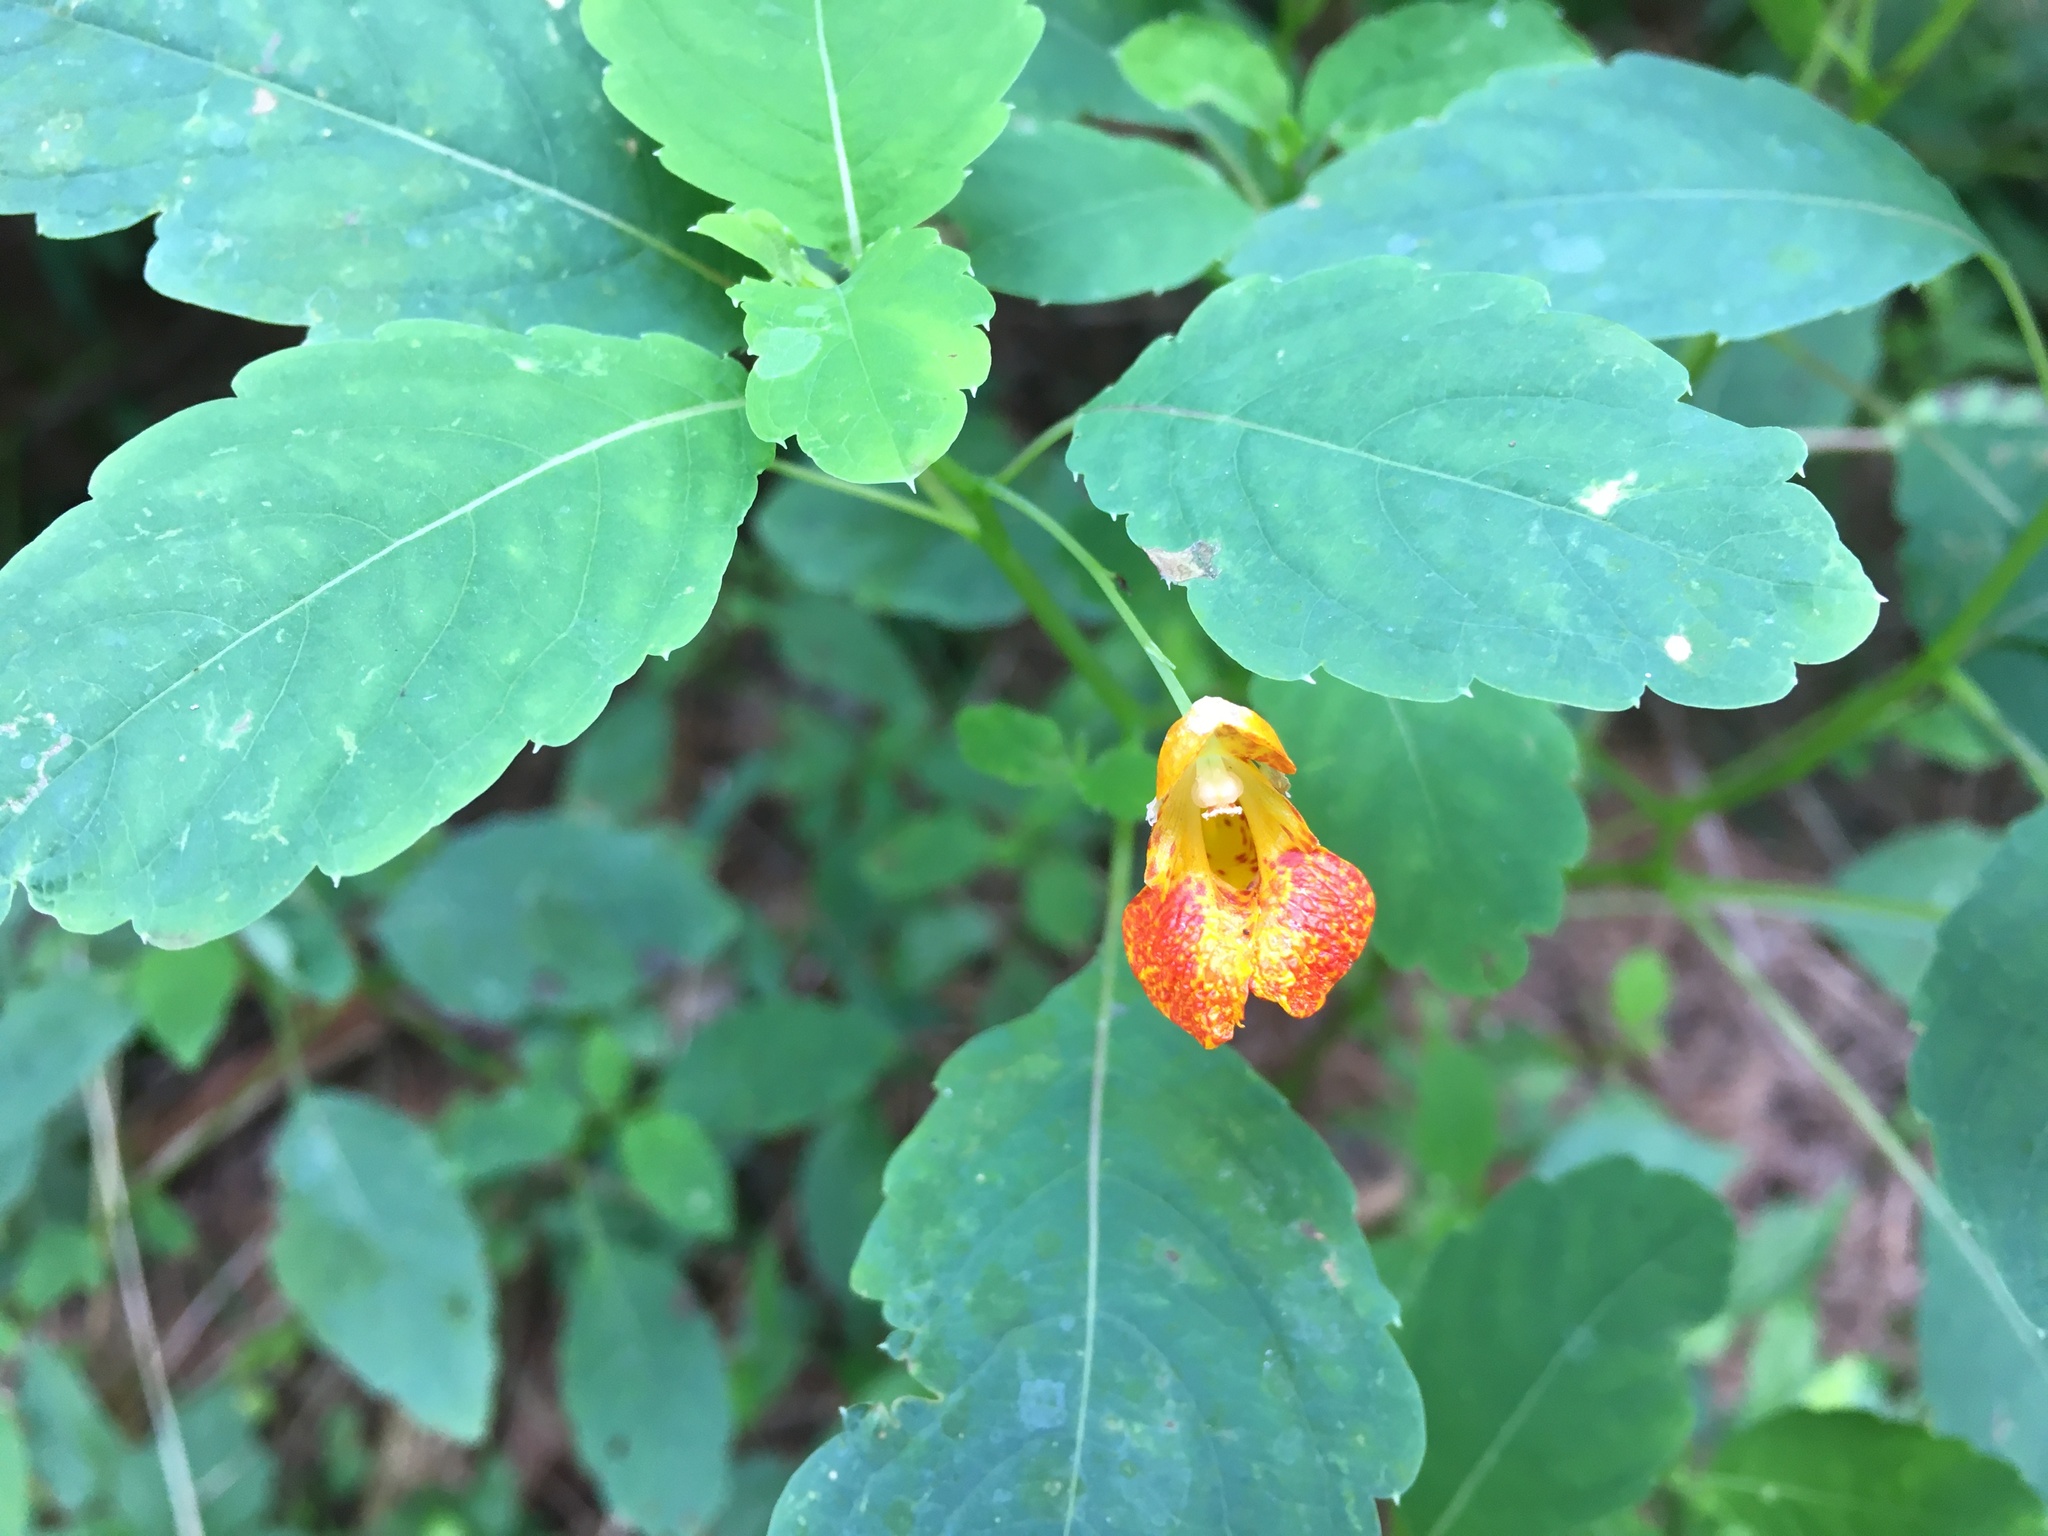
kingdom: Plantae
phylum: Tracheophyta
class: Magnoliopsida
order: Ericales
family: Balsaminaceae
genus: Impatiens
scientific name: Impatiens capensis
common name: Orange balsam
